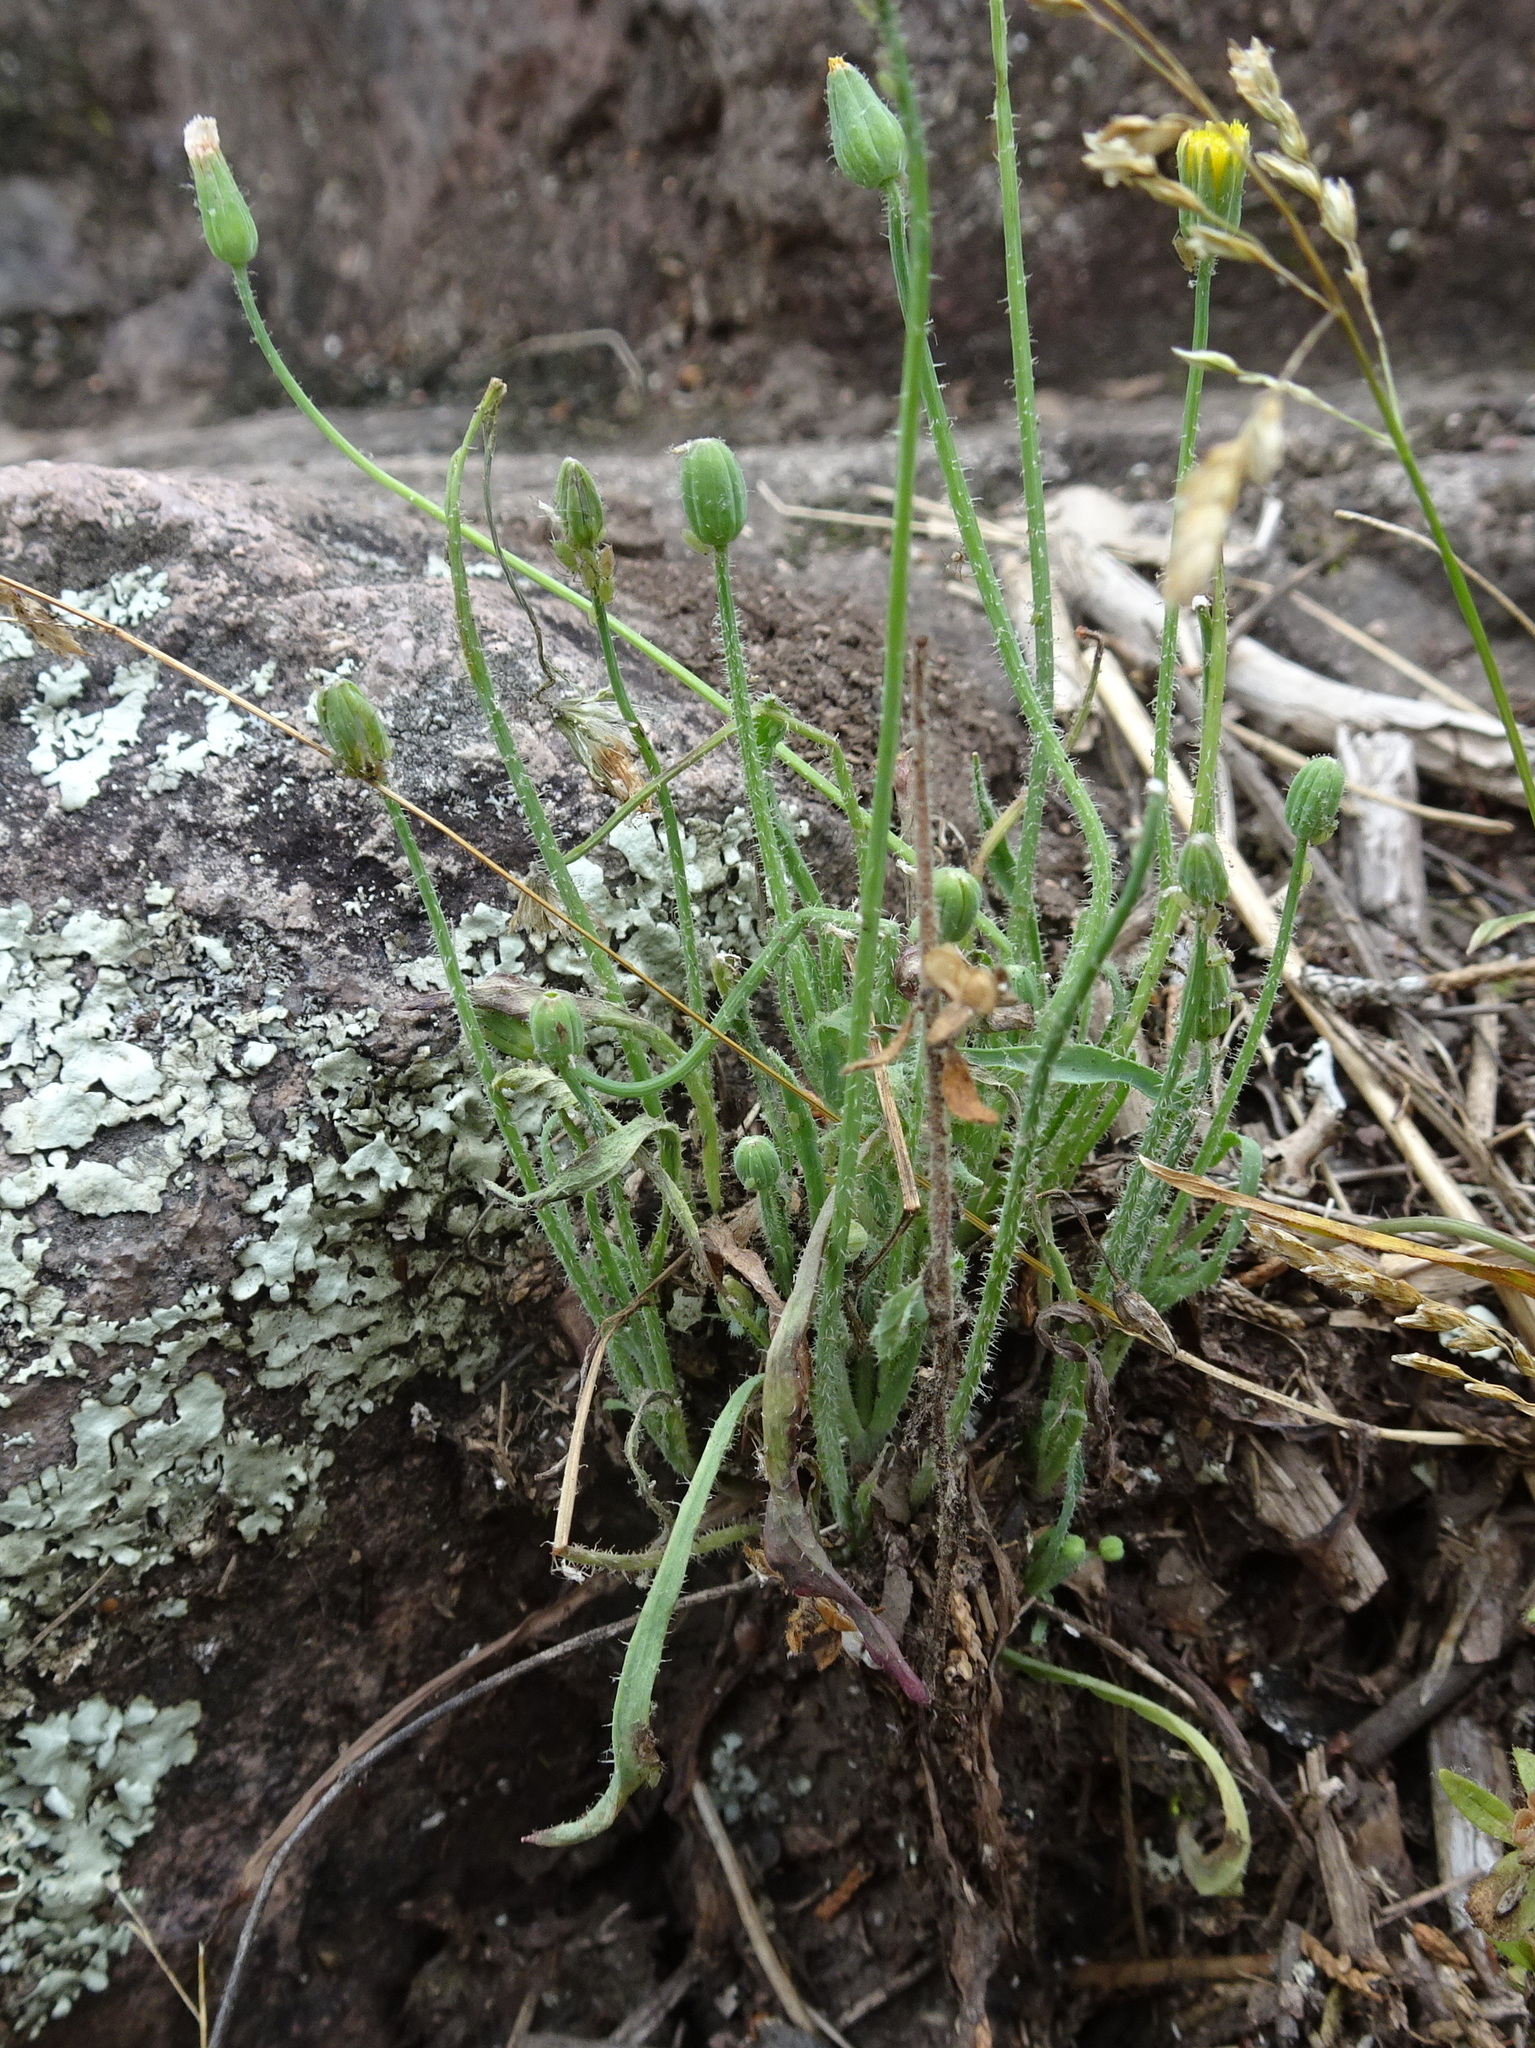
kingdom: Plantae
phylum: Tracheophyta
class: Magnoliopsida
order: Asterales
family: Asteraceae
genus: Krigia
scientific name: Krigia virginica
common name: Virginia dwarf-dandelion
